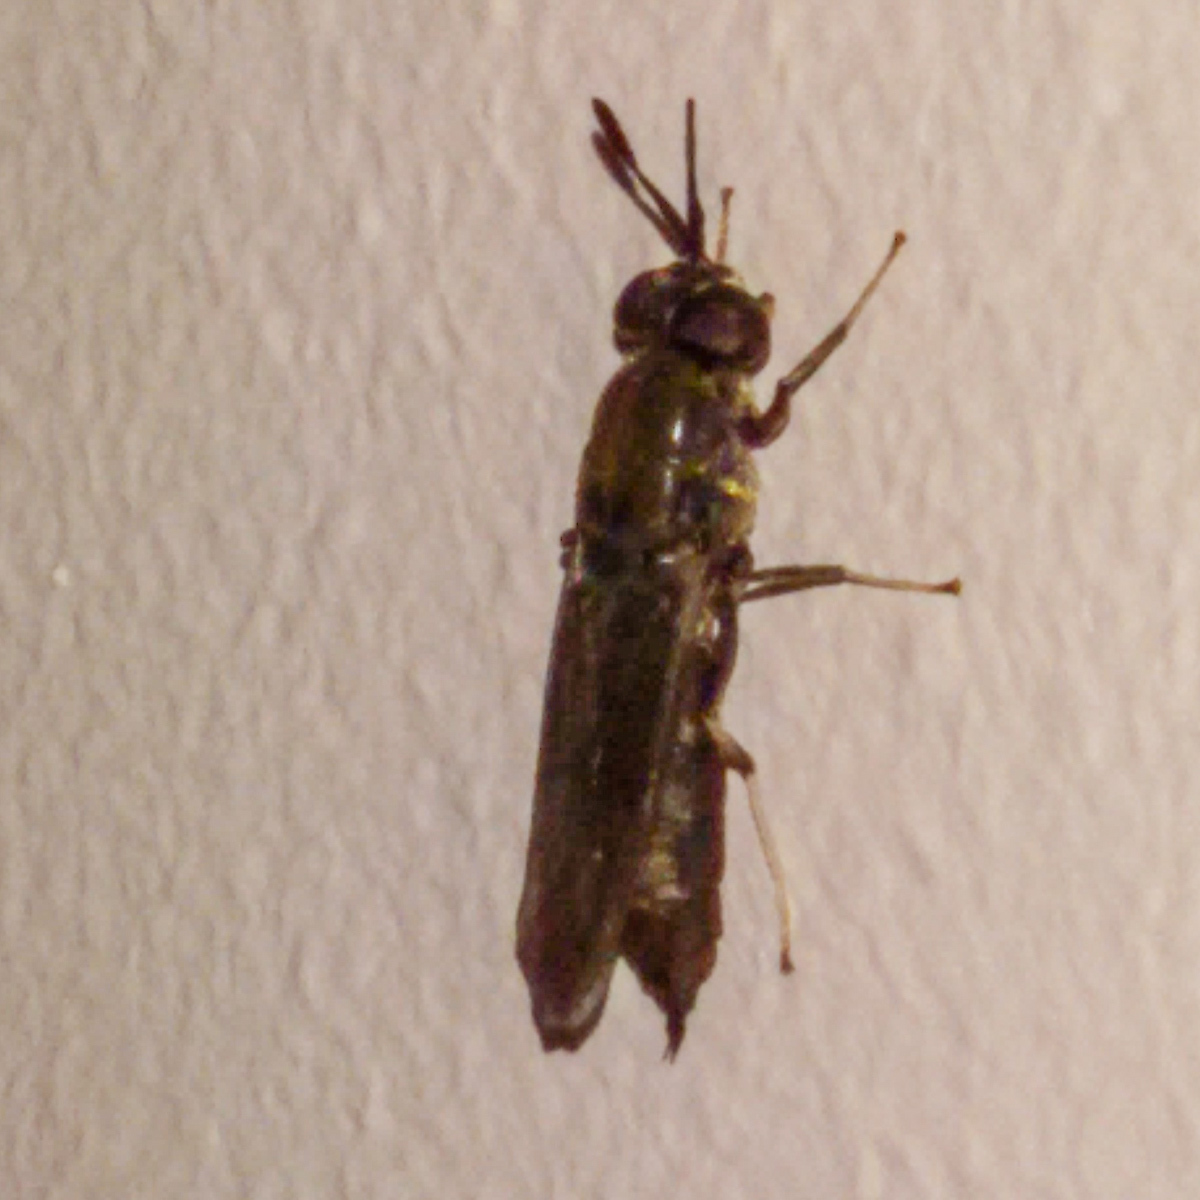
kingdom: Animalia
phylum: Arthropoda
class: Insecta
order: Diptera
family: Stratiomyidae
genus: Hermetia
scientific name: Hermetia illucens
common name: Black soldier fly
